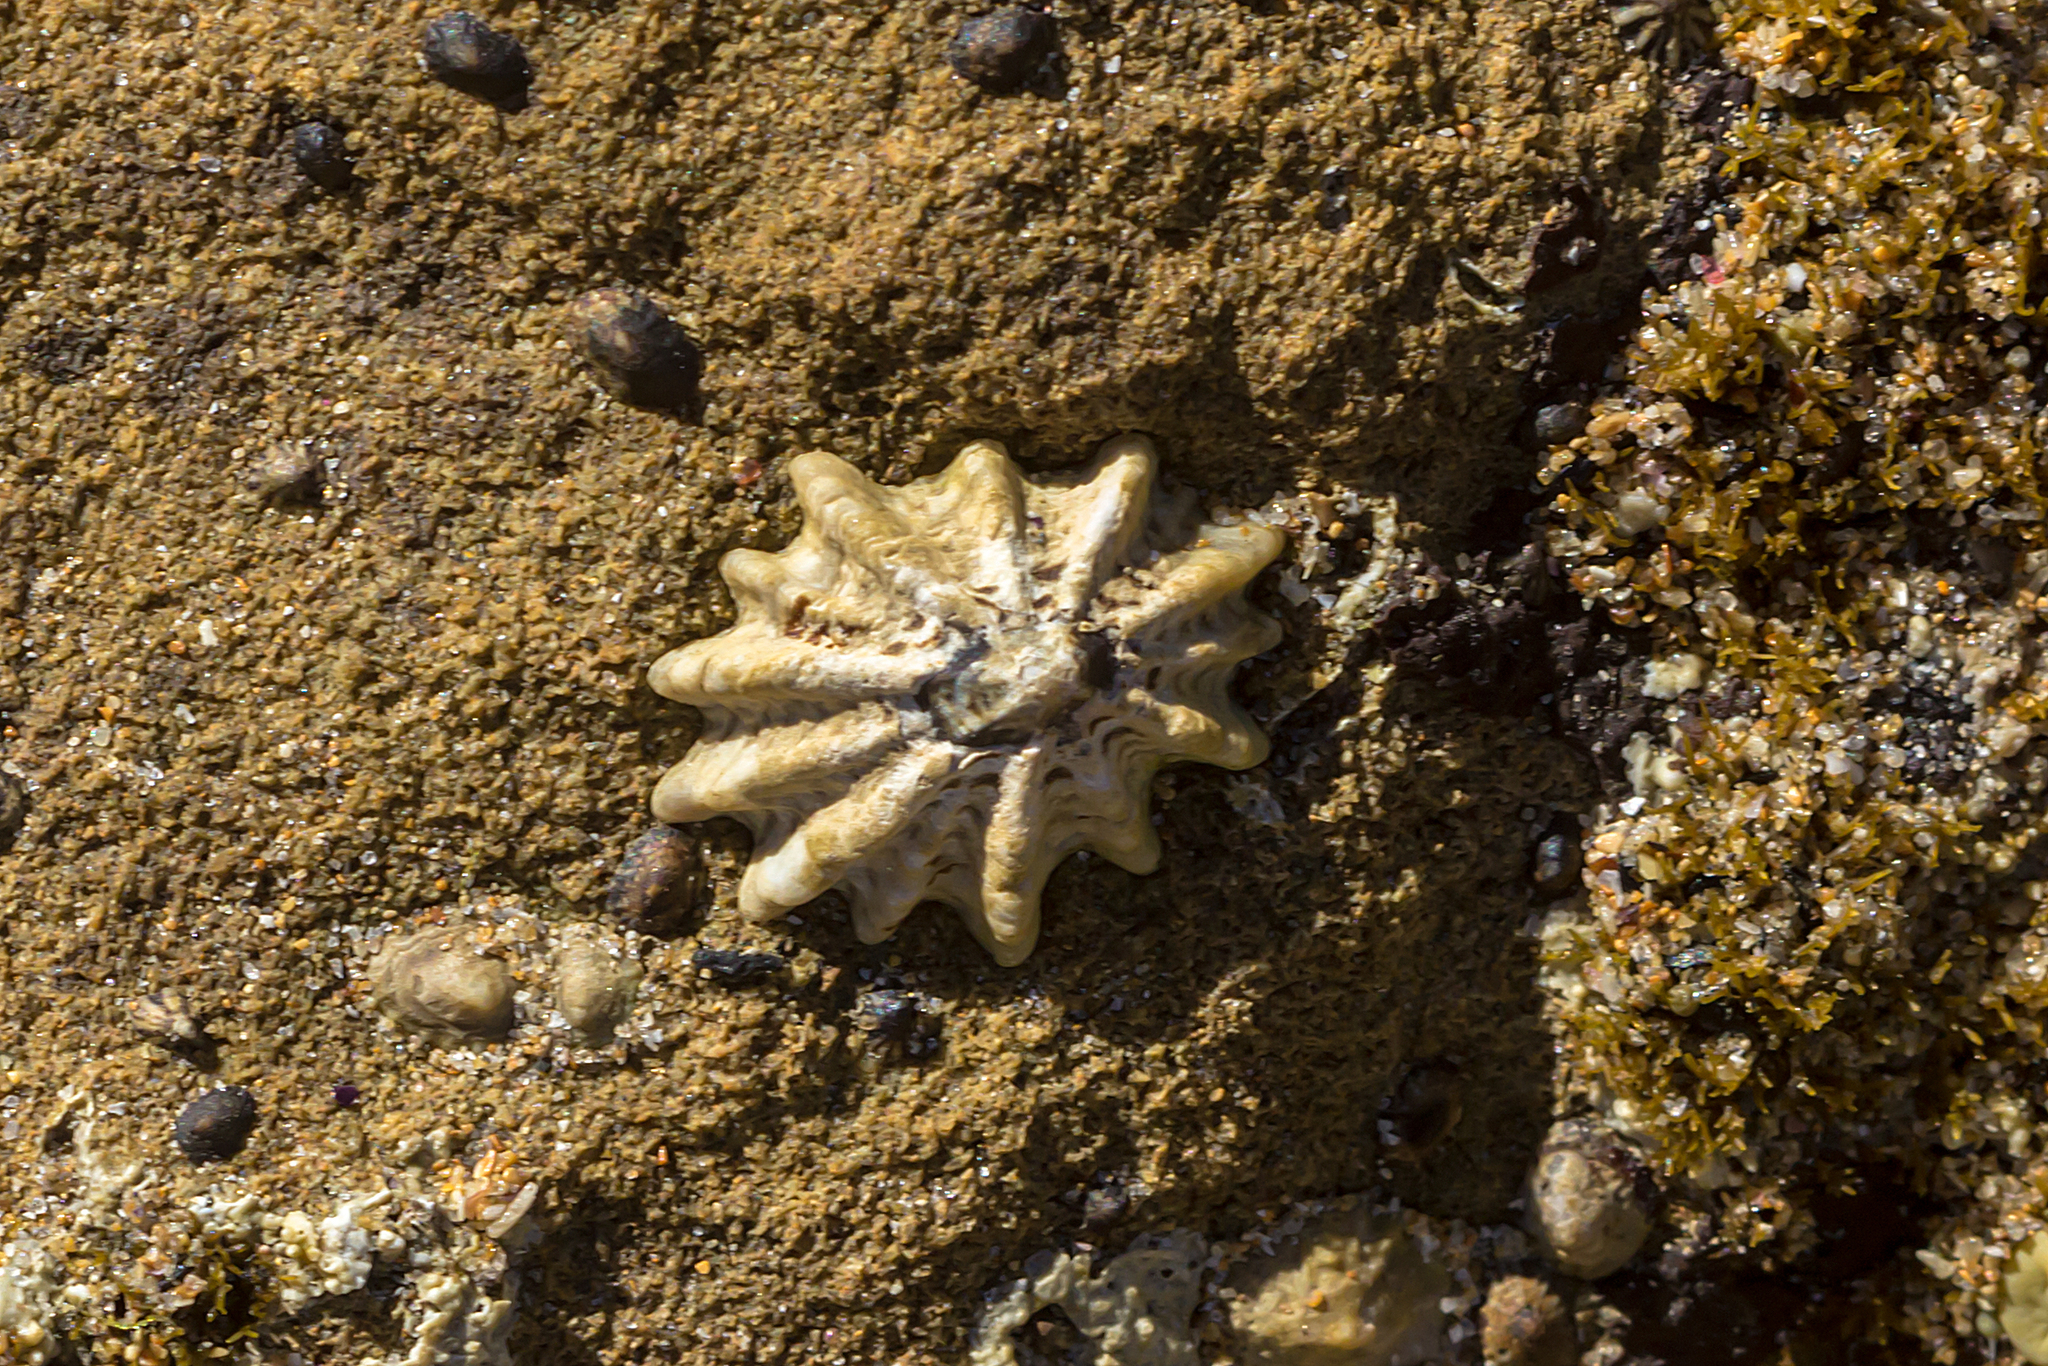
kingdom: Animalia
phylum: Mollusca
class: Gastropoda
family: Lottiidae
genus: Patelloida
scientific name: Patelloida alticostata
